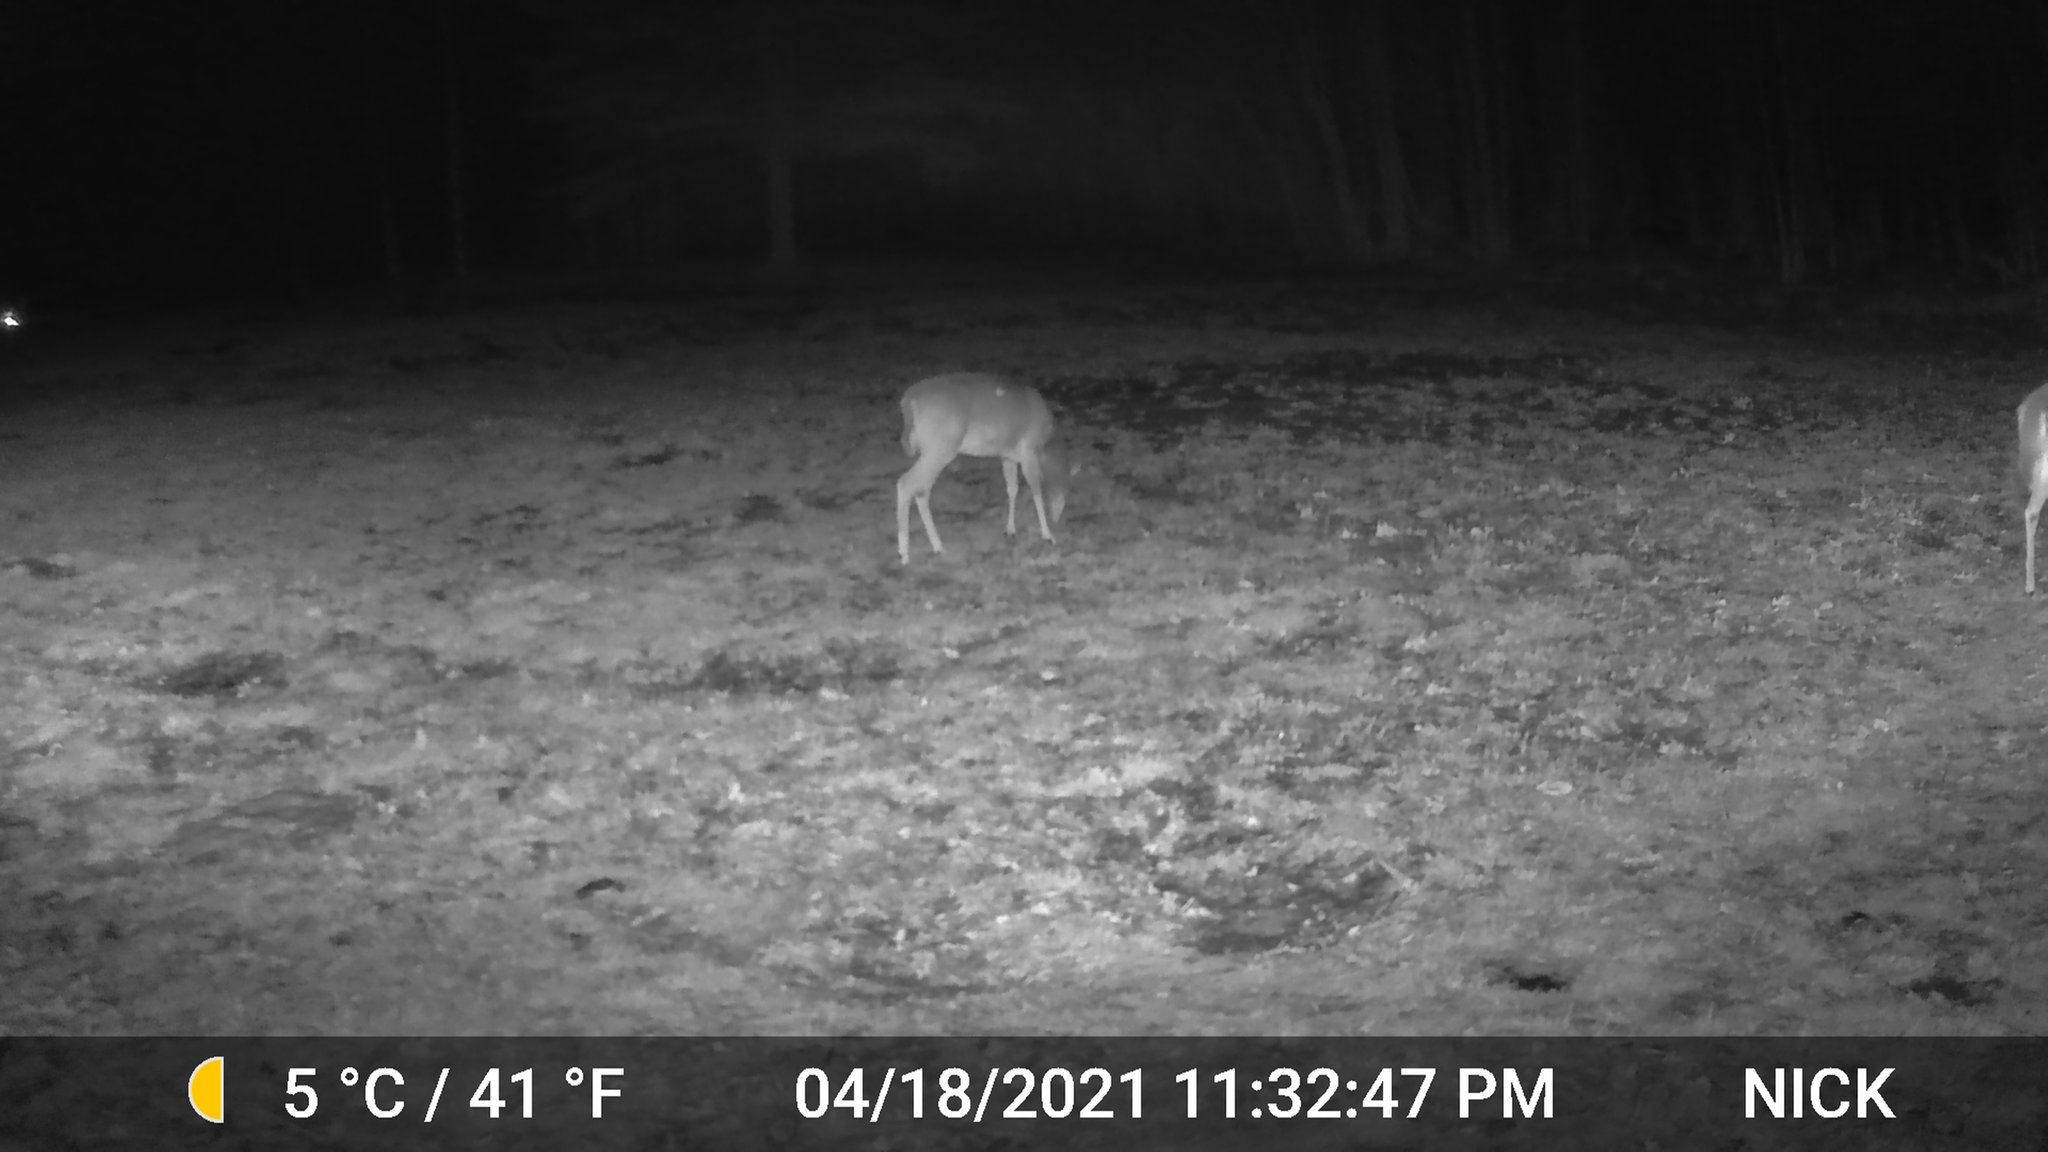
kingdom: Animalia
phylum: Chordata
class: Mammalia
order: Artiodactyla
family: Cervidae
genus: Odocoileus
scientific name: Odocoileus virginianus
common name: White-tailed deer
